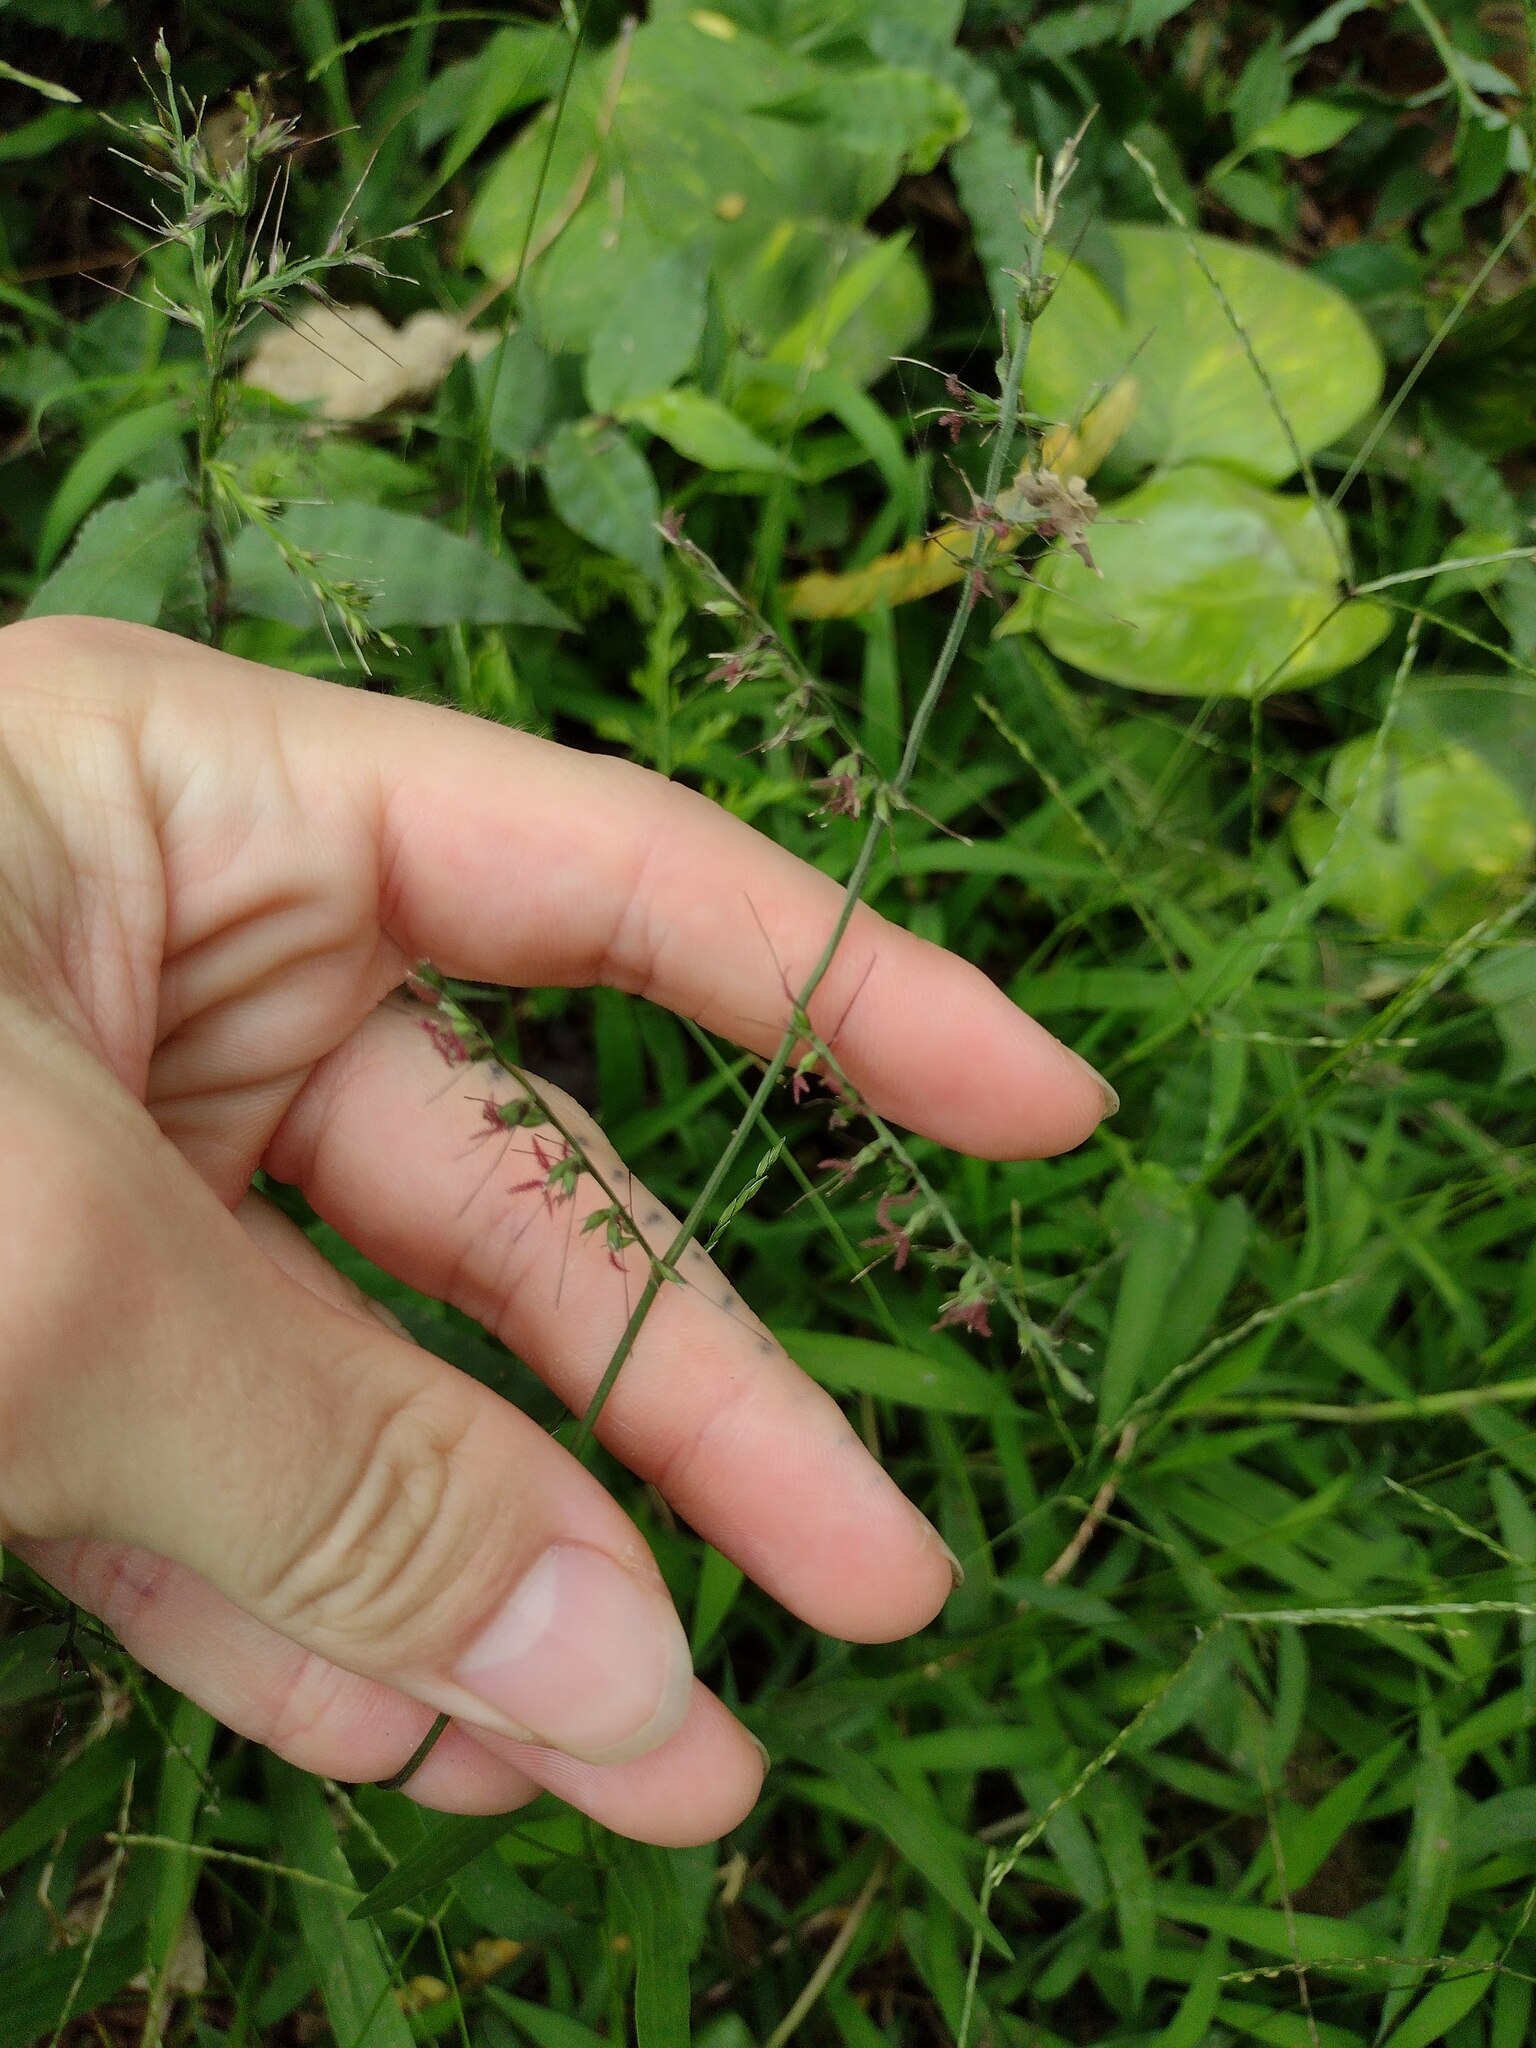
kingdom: Plantae
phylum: Tracheophyta
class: Liliopsida
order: Poales
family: Poaceae
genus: Oplismenus
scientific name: Oplismenus compositus
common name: Running mountain grass
